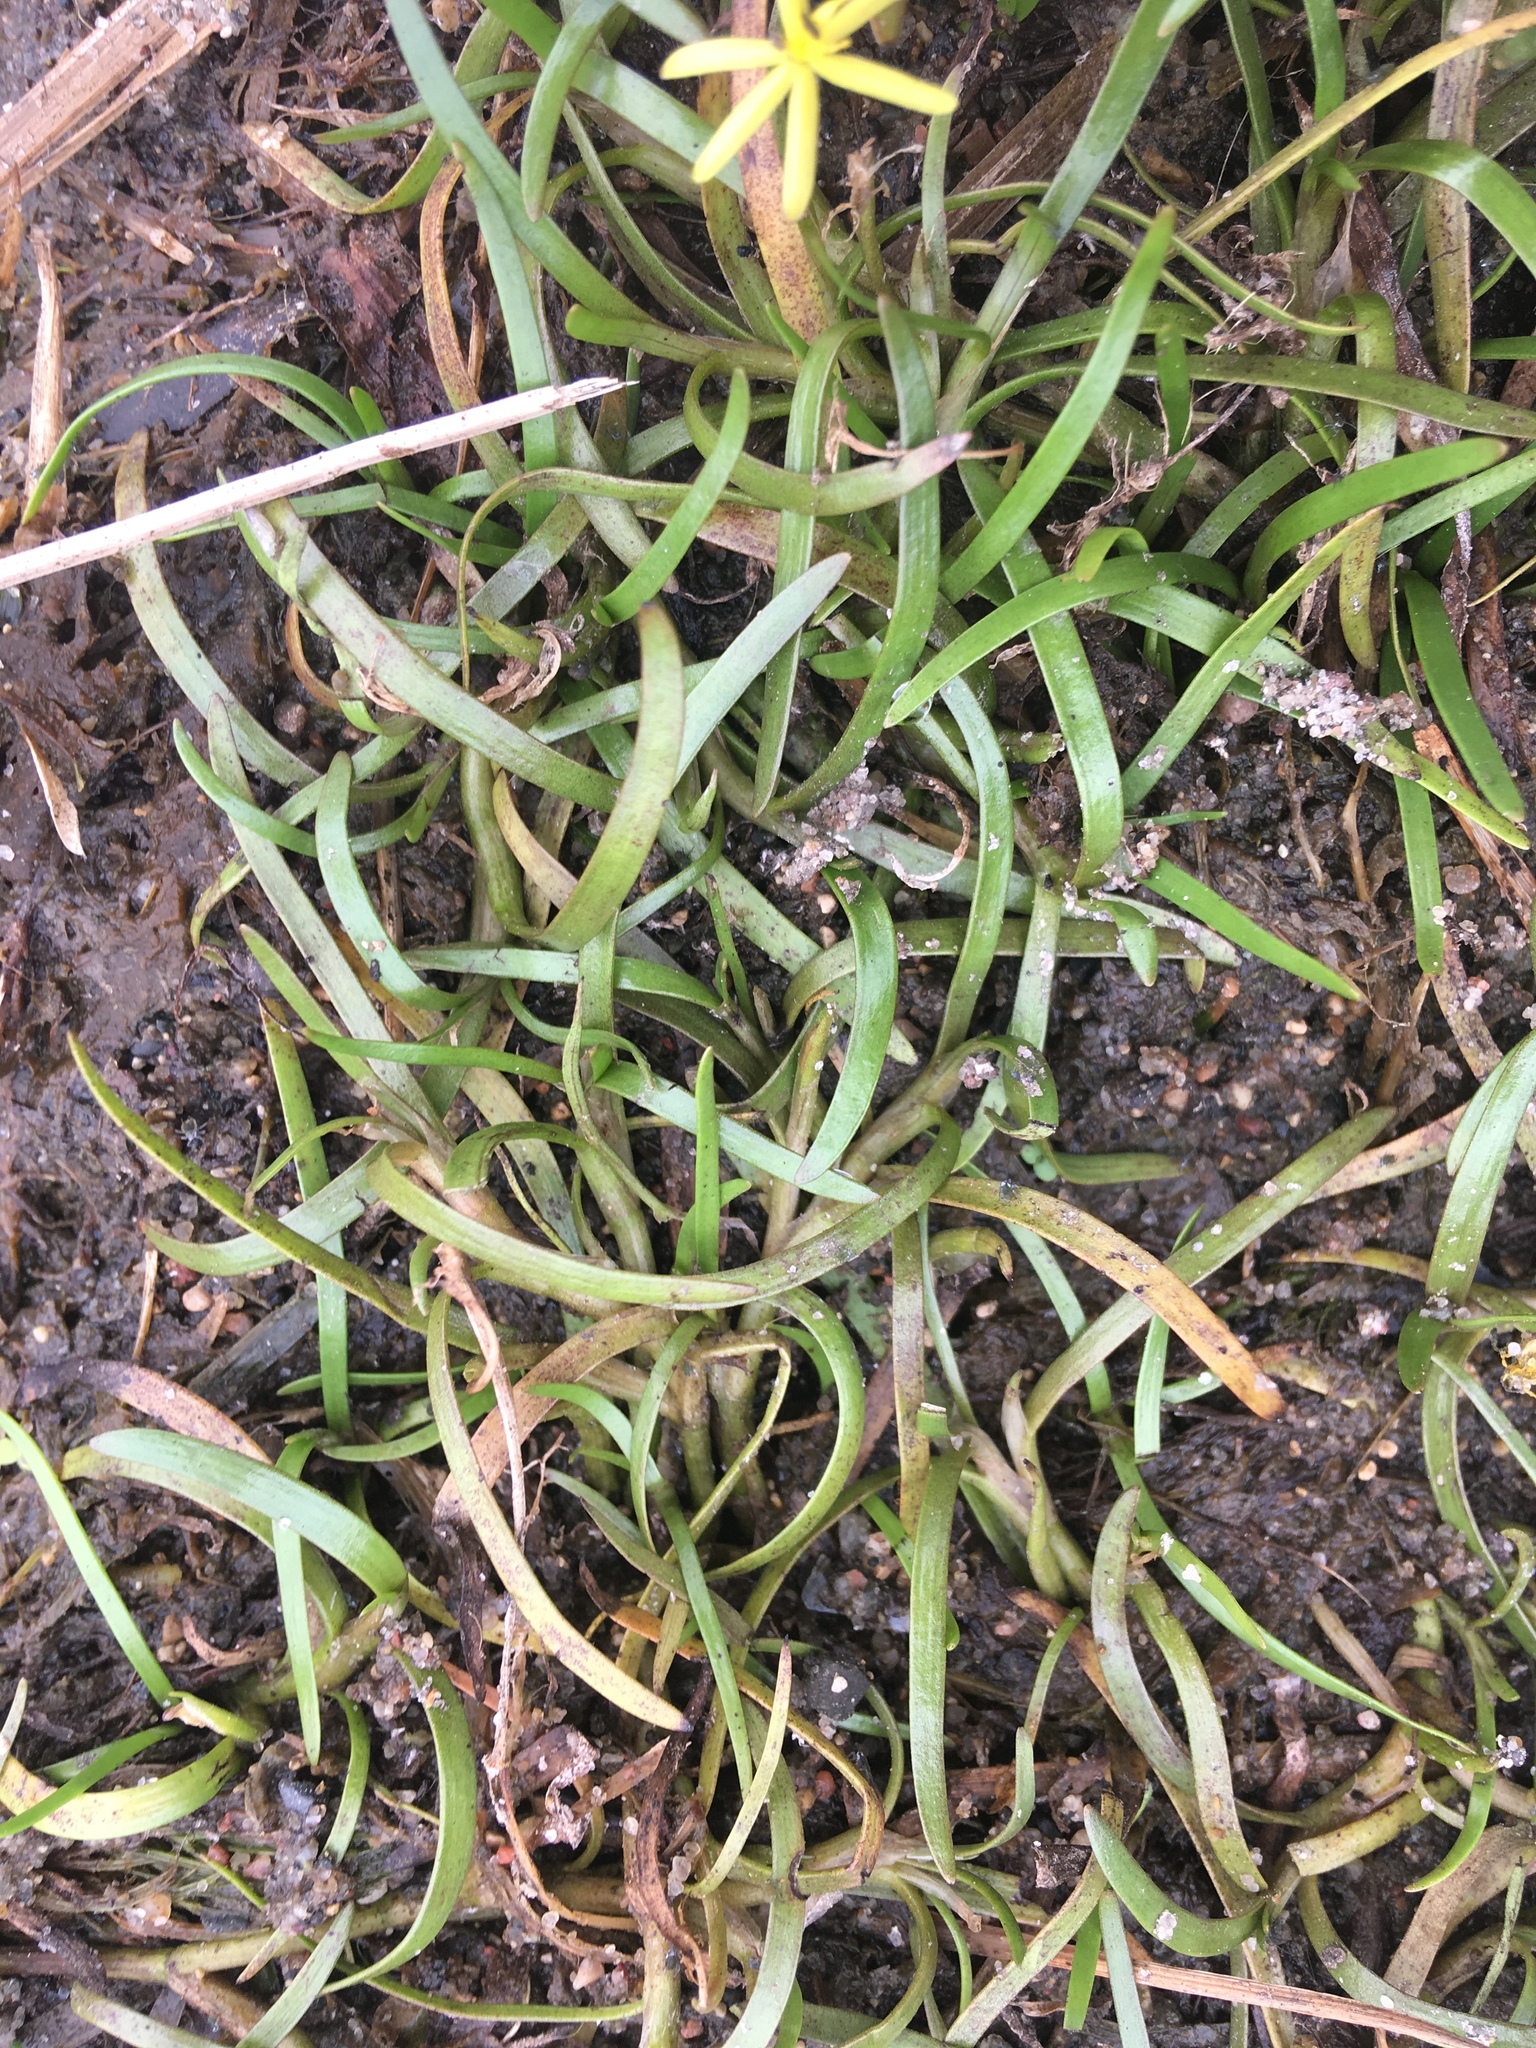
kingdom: Plantae
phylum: Tracheophyta
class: Liliopsida
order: Commelinales
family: Pontederiaceae
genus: Heteranthera
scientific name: Heteranthera dubia
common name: Grass-leaved mud plantain
